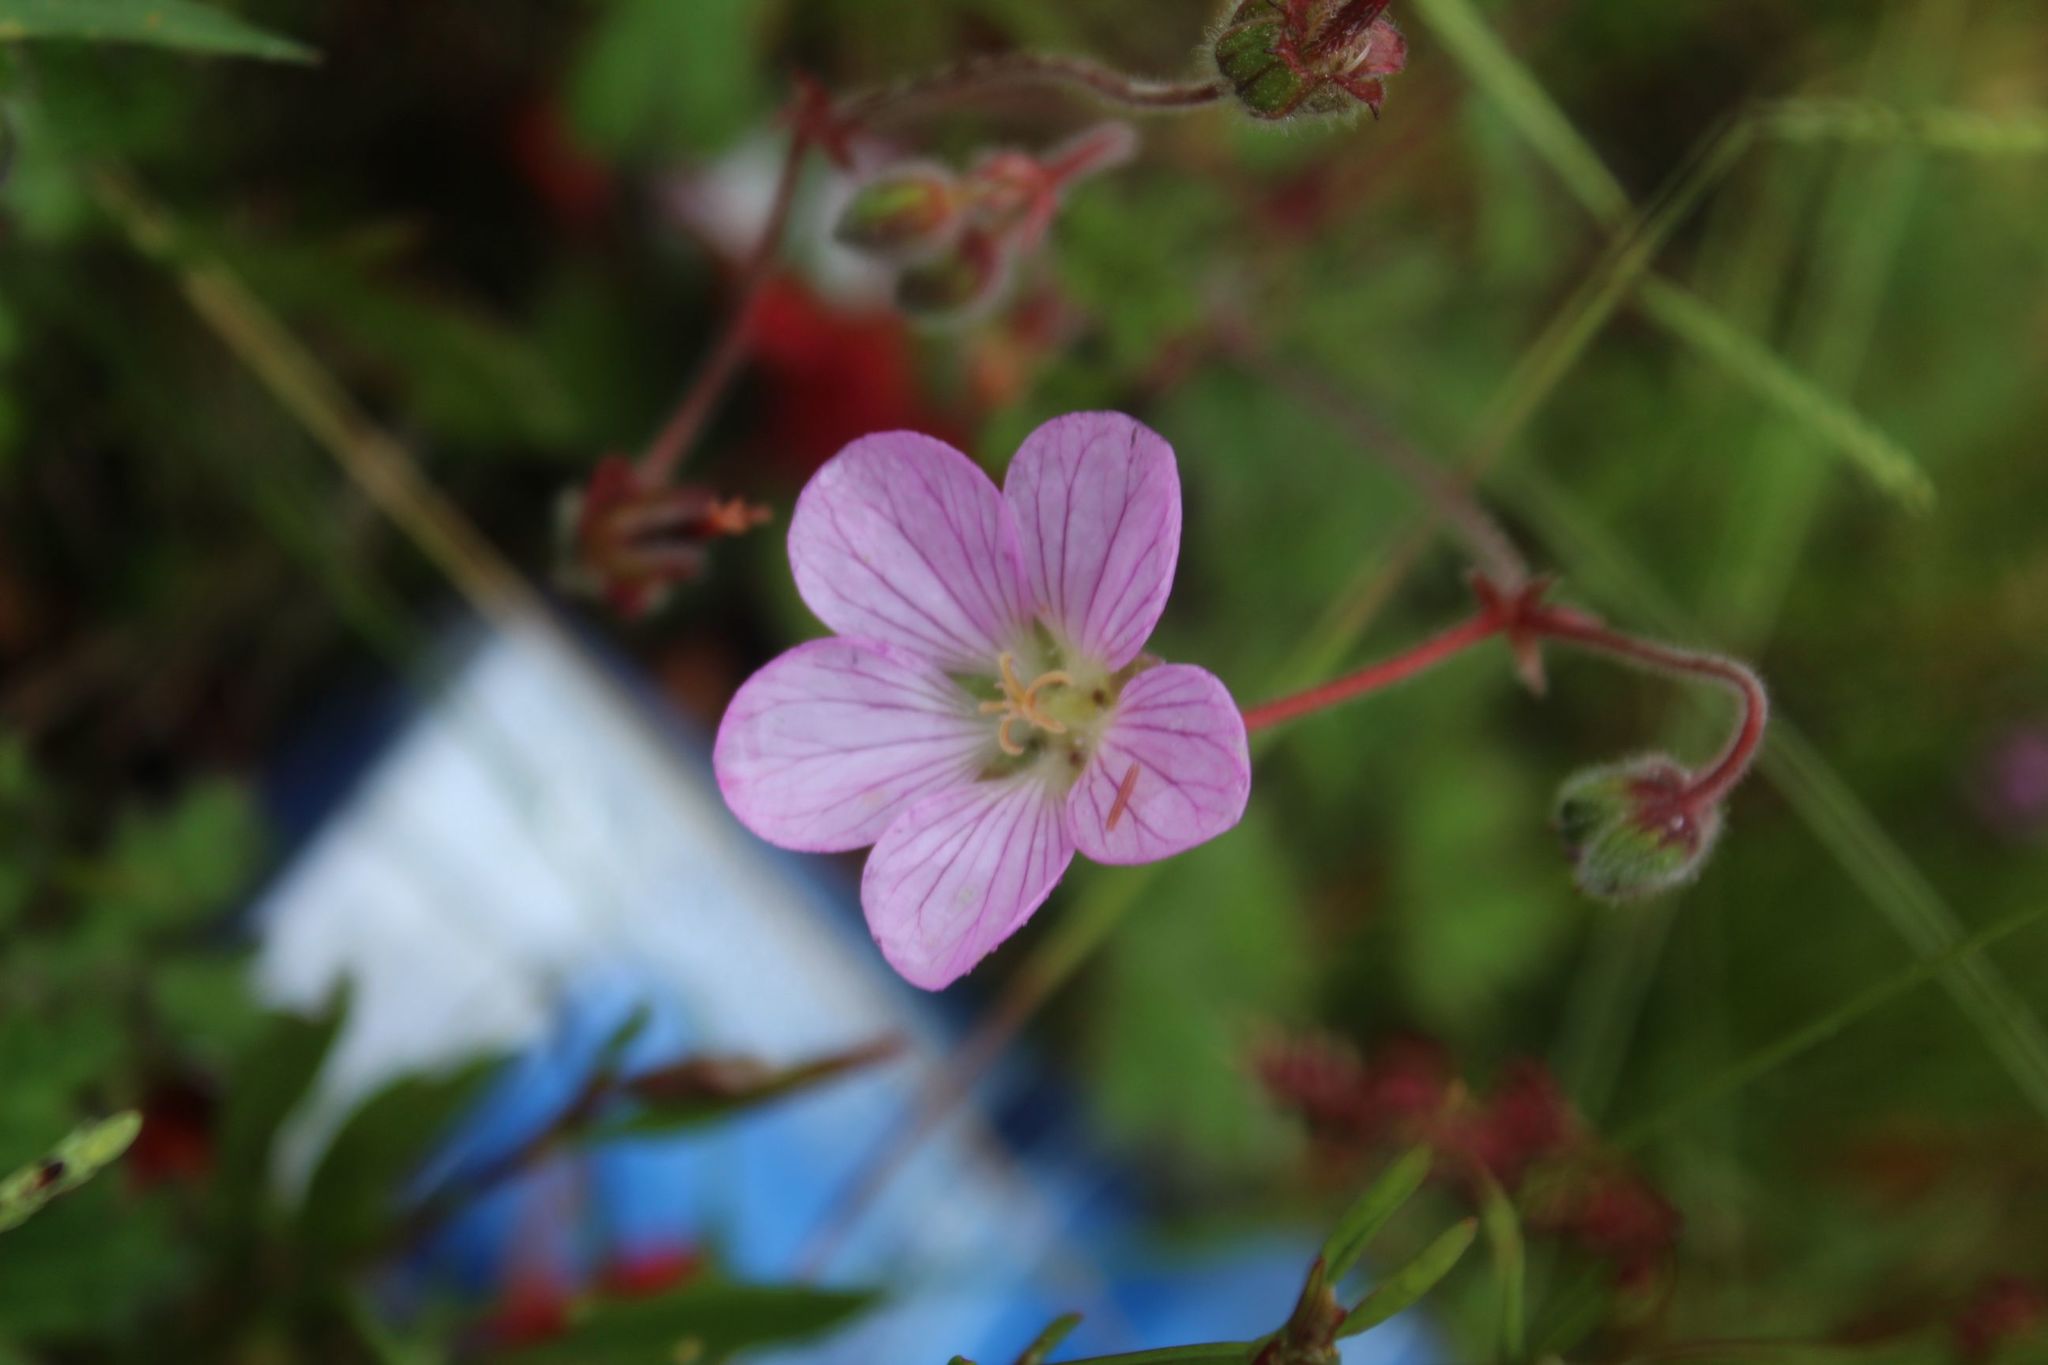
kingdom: Plantae
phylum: Tracheophyta
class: Magnoliopsida
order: Geraniales
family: Geraniaceae
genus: Geranium
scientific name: Geranium holosericeum
